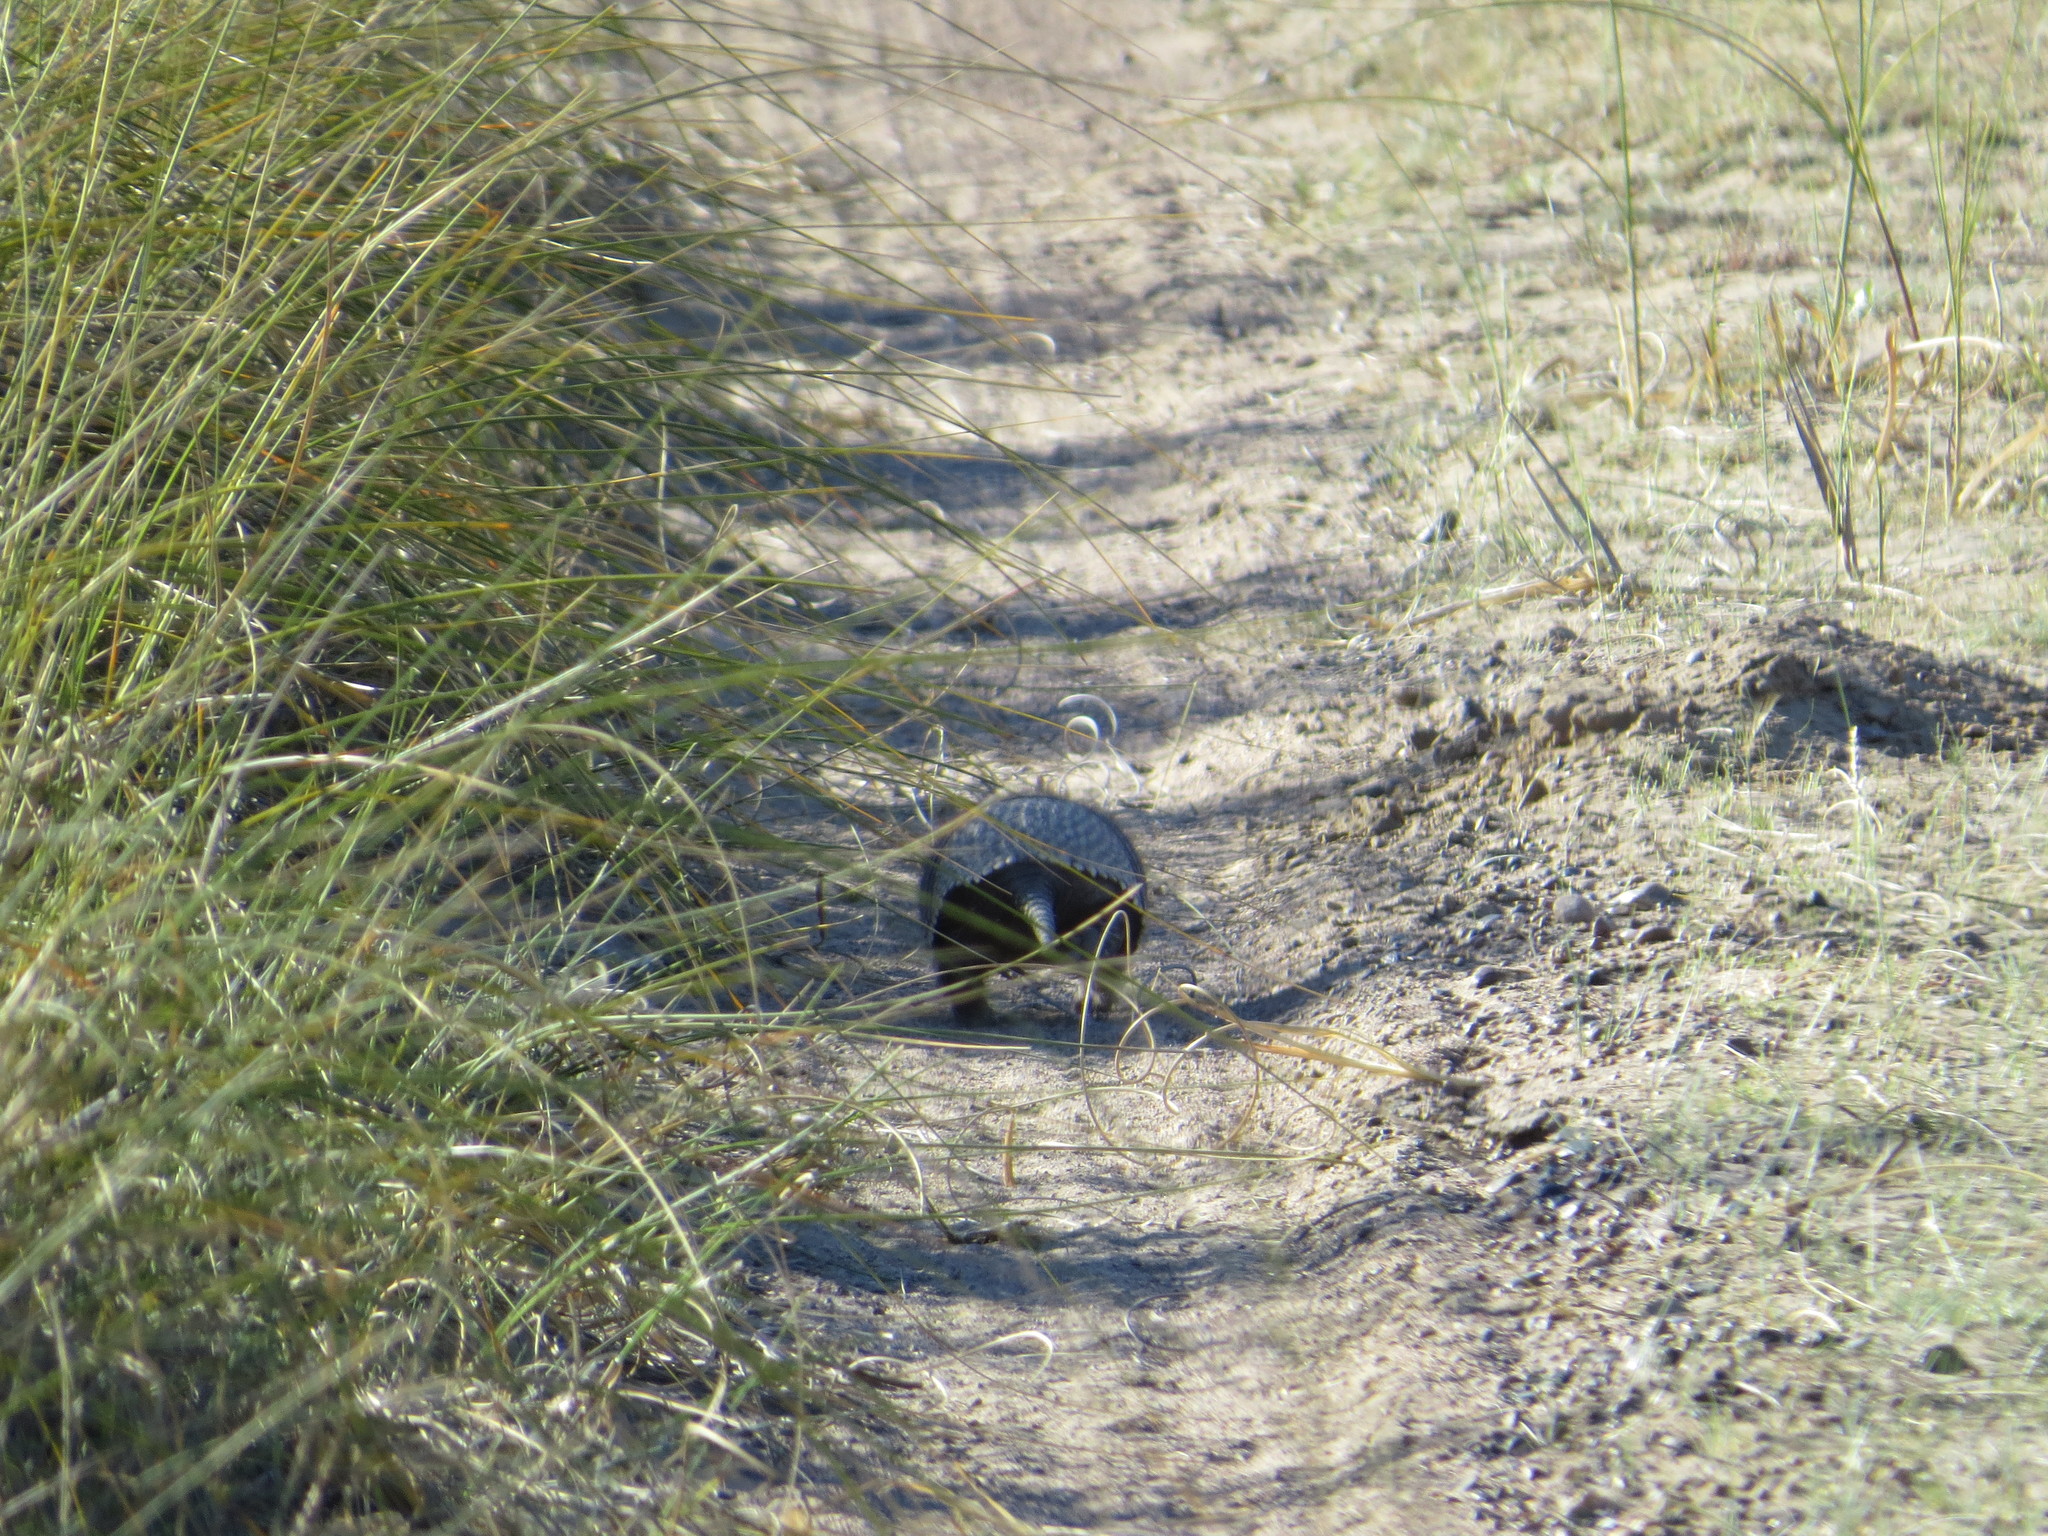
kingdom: Animalia
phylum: Chordata
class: Mammalia
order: Cingulata
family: Dasypodidae
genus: Zaedyus
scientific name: Zaedyus pichiy
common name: Pichi
